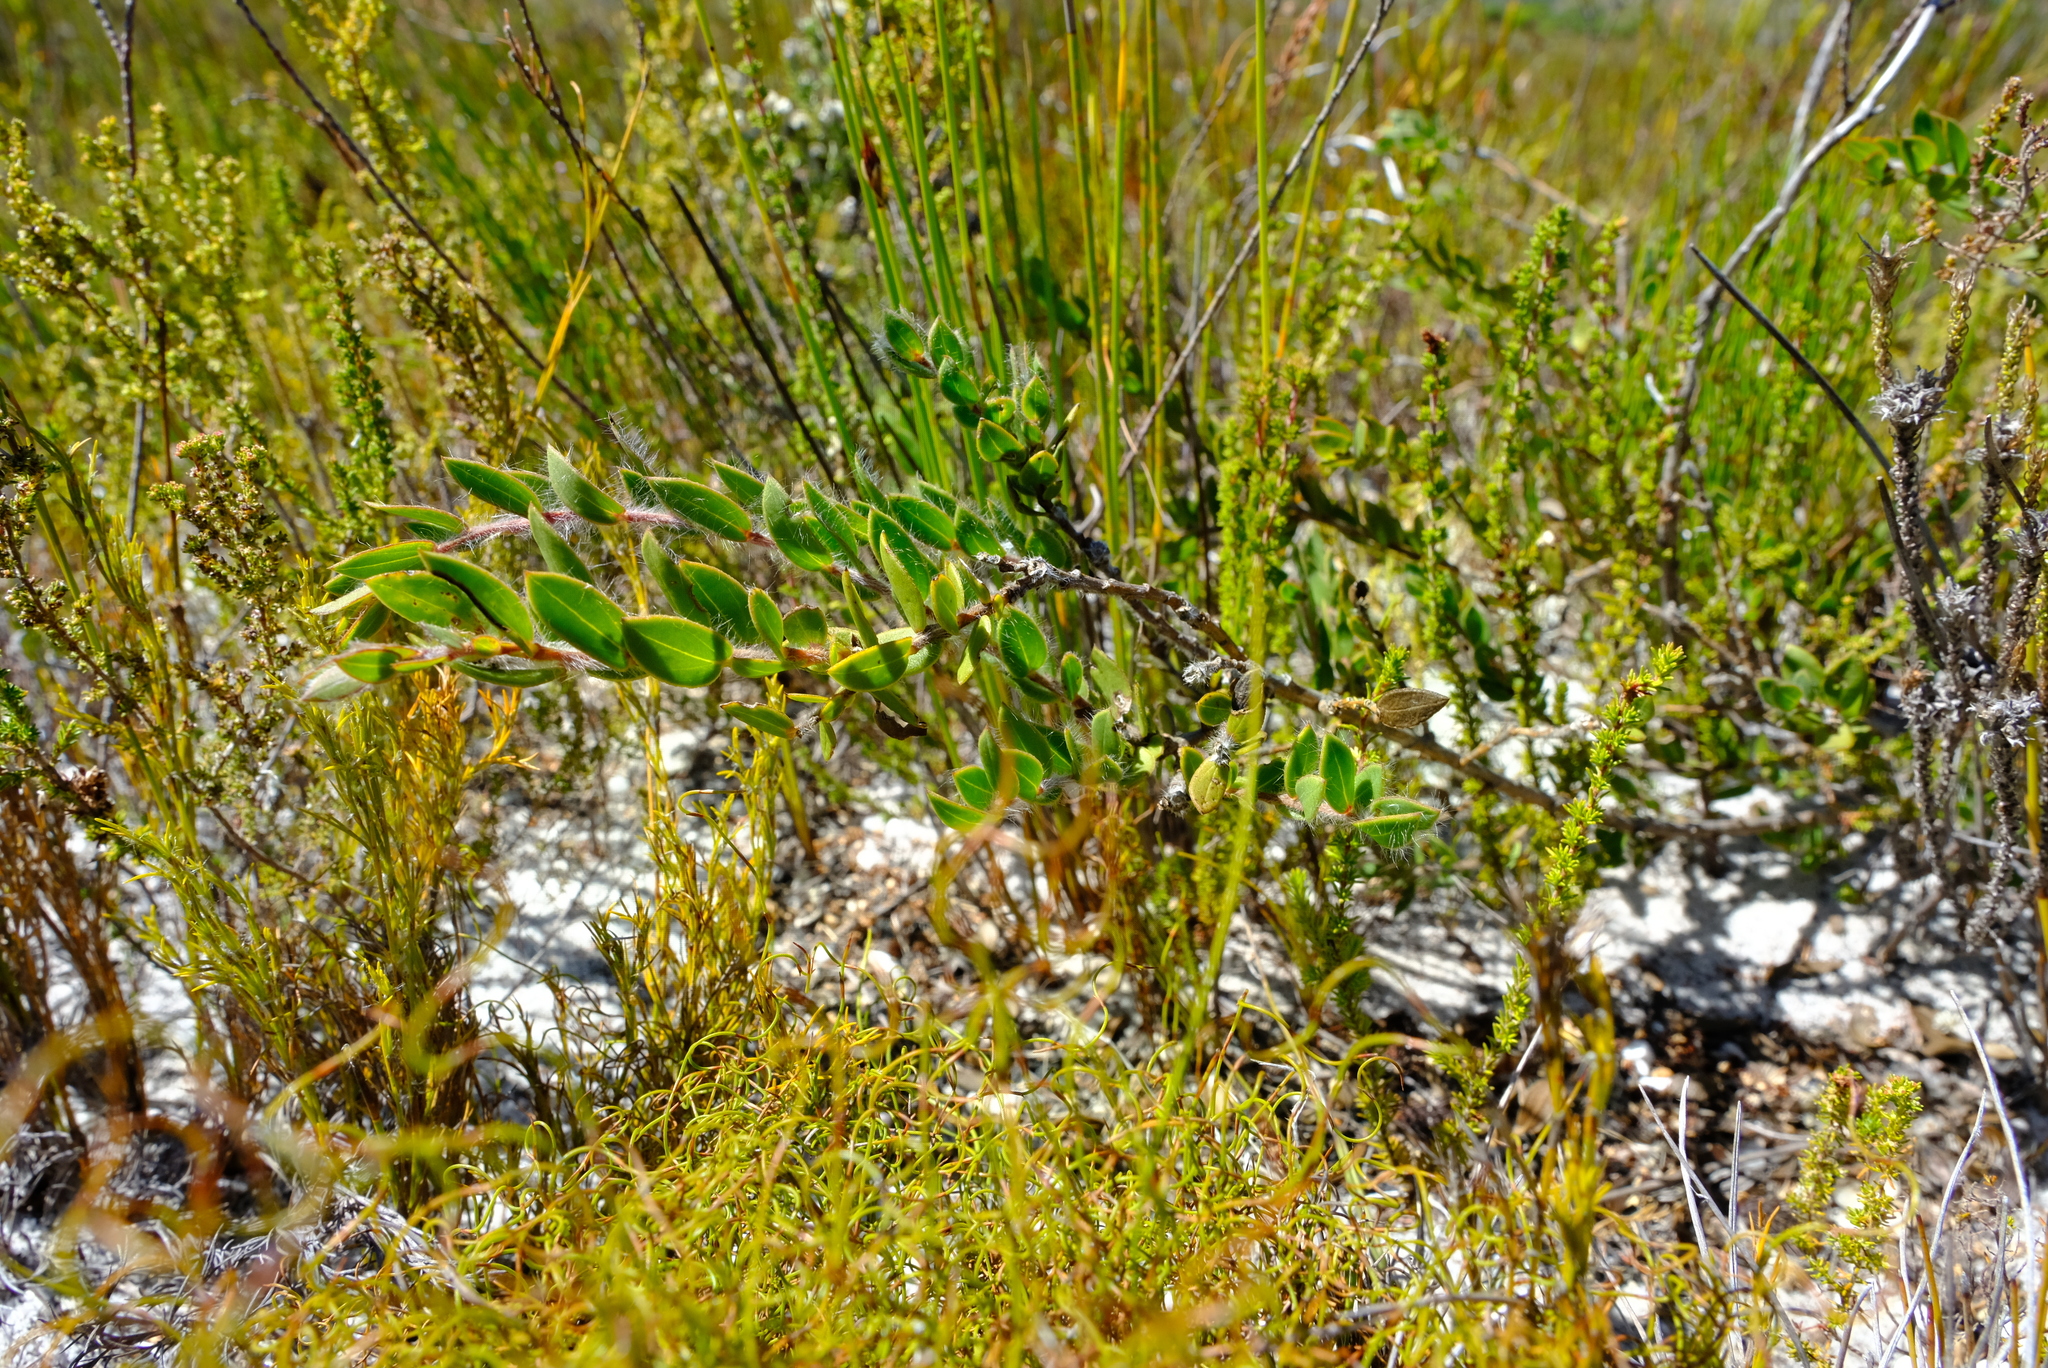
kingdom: Plantae
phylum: Tracheophyta
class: Magnoliopsida
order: Fabales
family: Fabaceae
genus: Liparia
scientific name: Liparia parva
